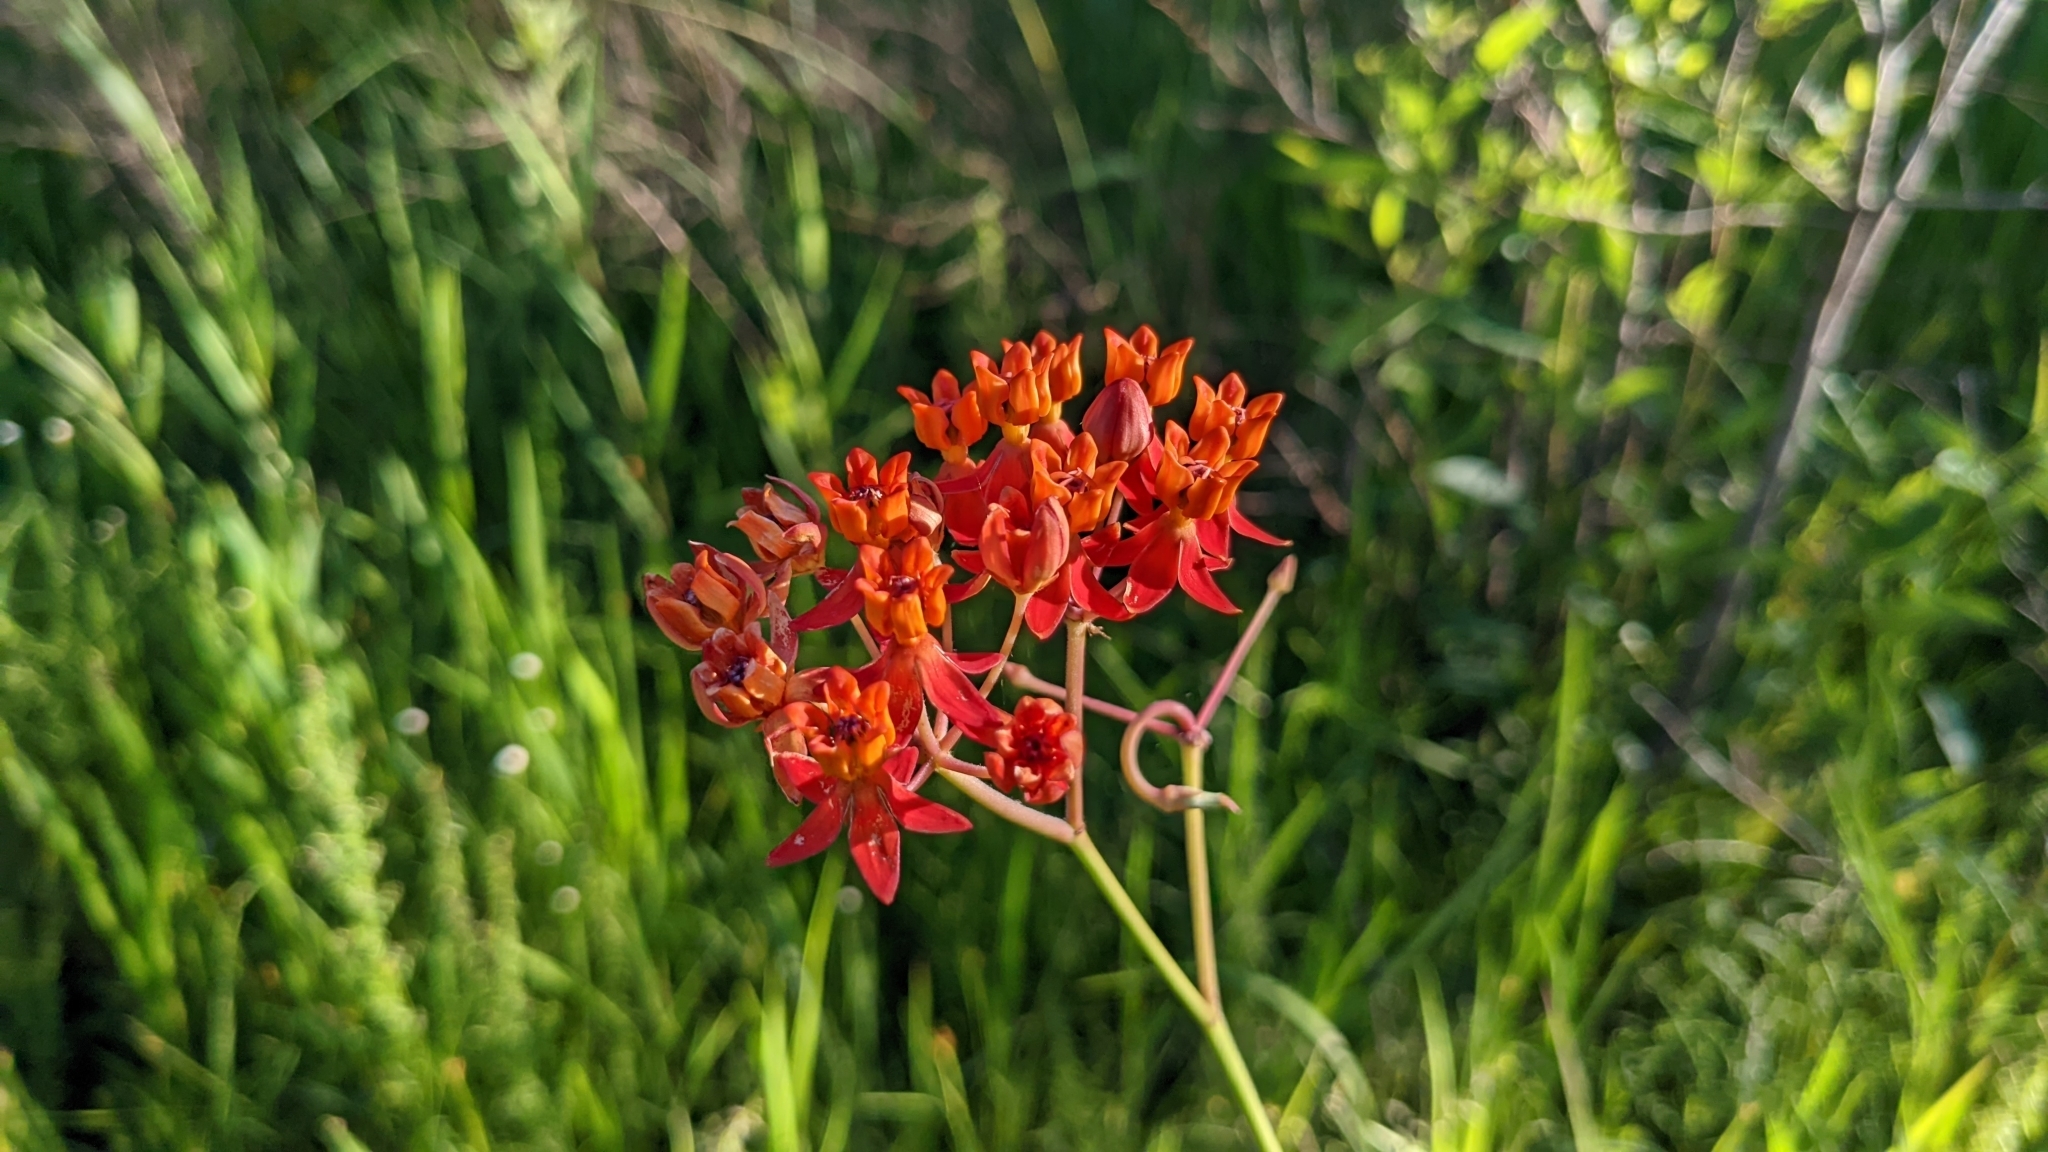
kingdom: Plantae
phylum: Tracheophyta
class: Magnoliopsida
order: Gentianales
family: Apocynaceae
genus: Asclepias
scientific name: Asclepias lanceolata
